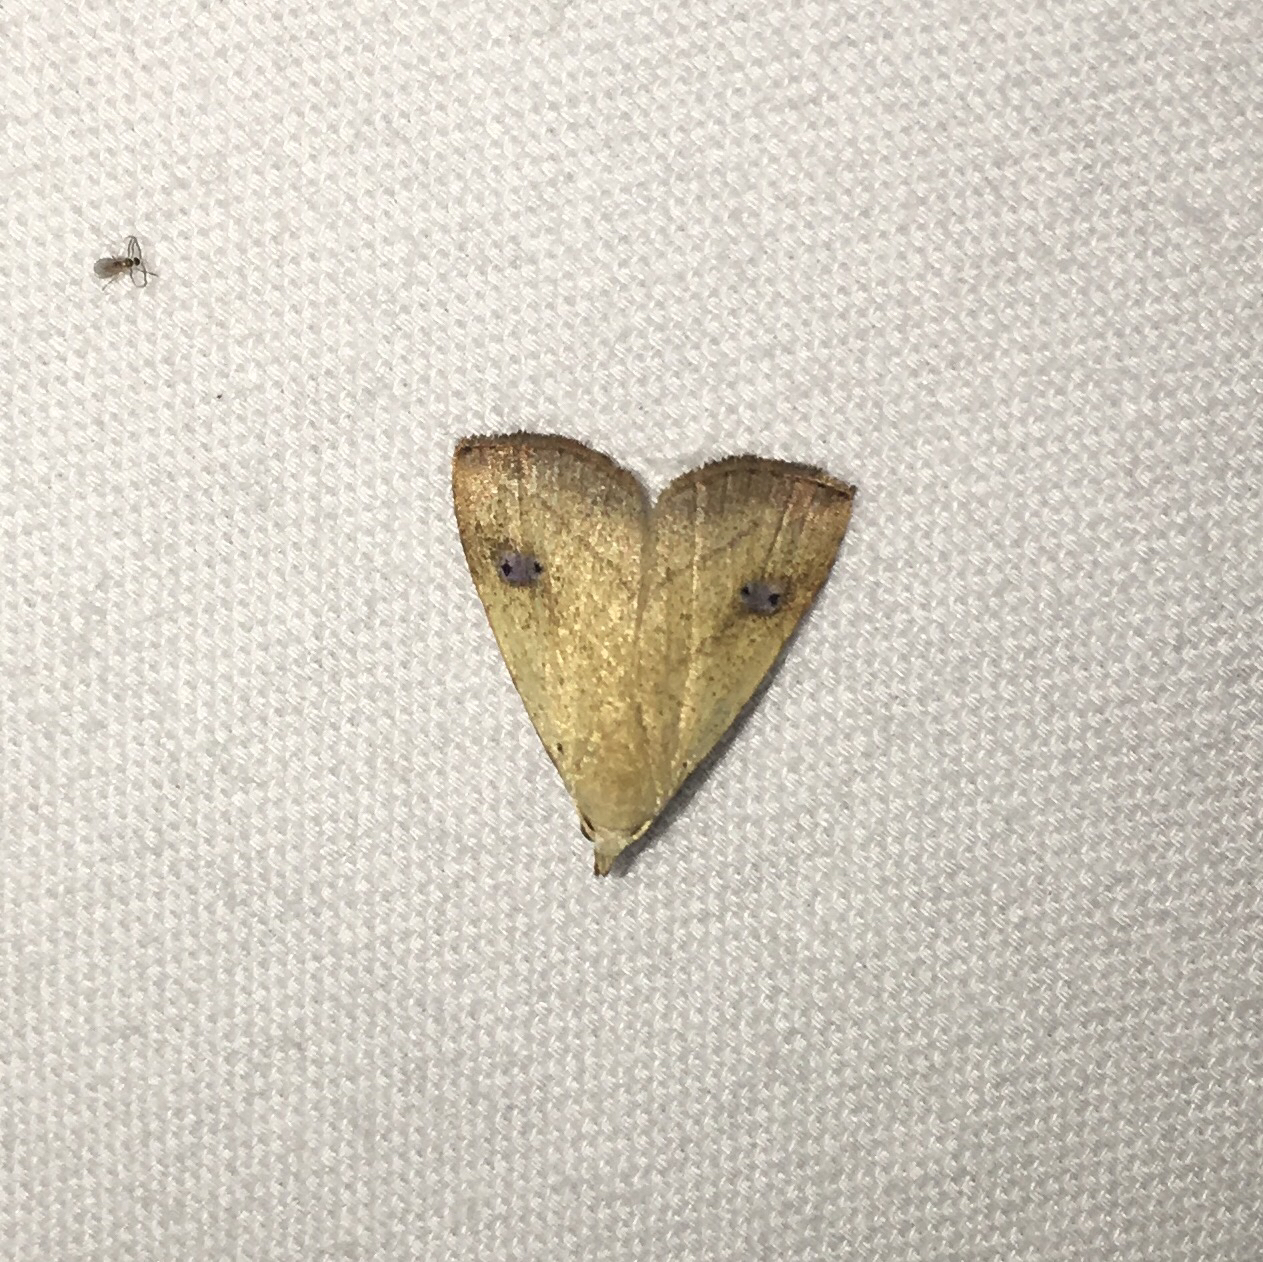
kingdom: Animalia
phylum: Arthropoda
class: Insecta
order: Lepidoptera
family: Erebidae
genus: Rivula
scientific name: Rivula propinqualis
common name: Spotted grass moth
